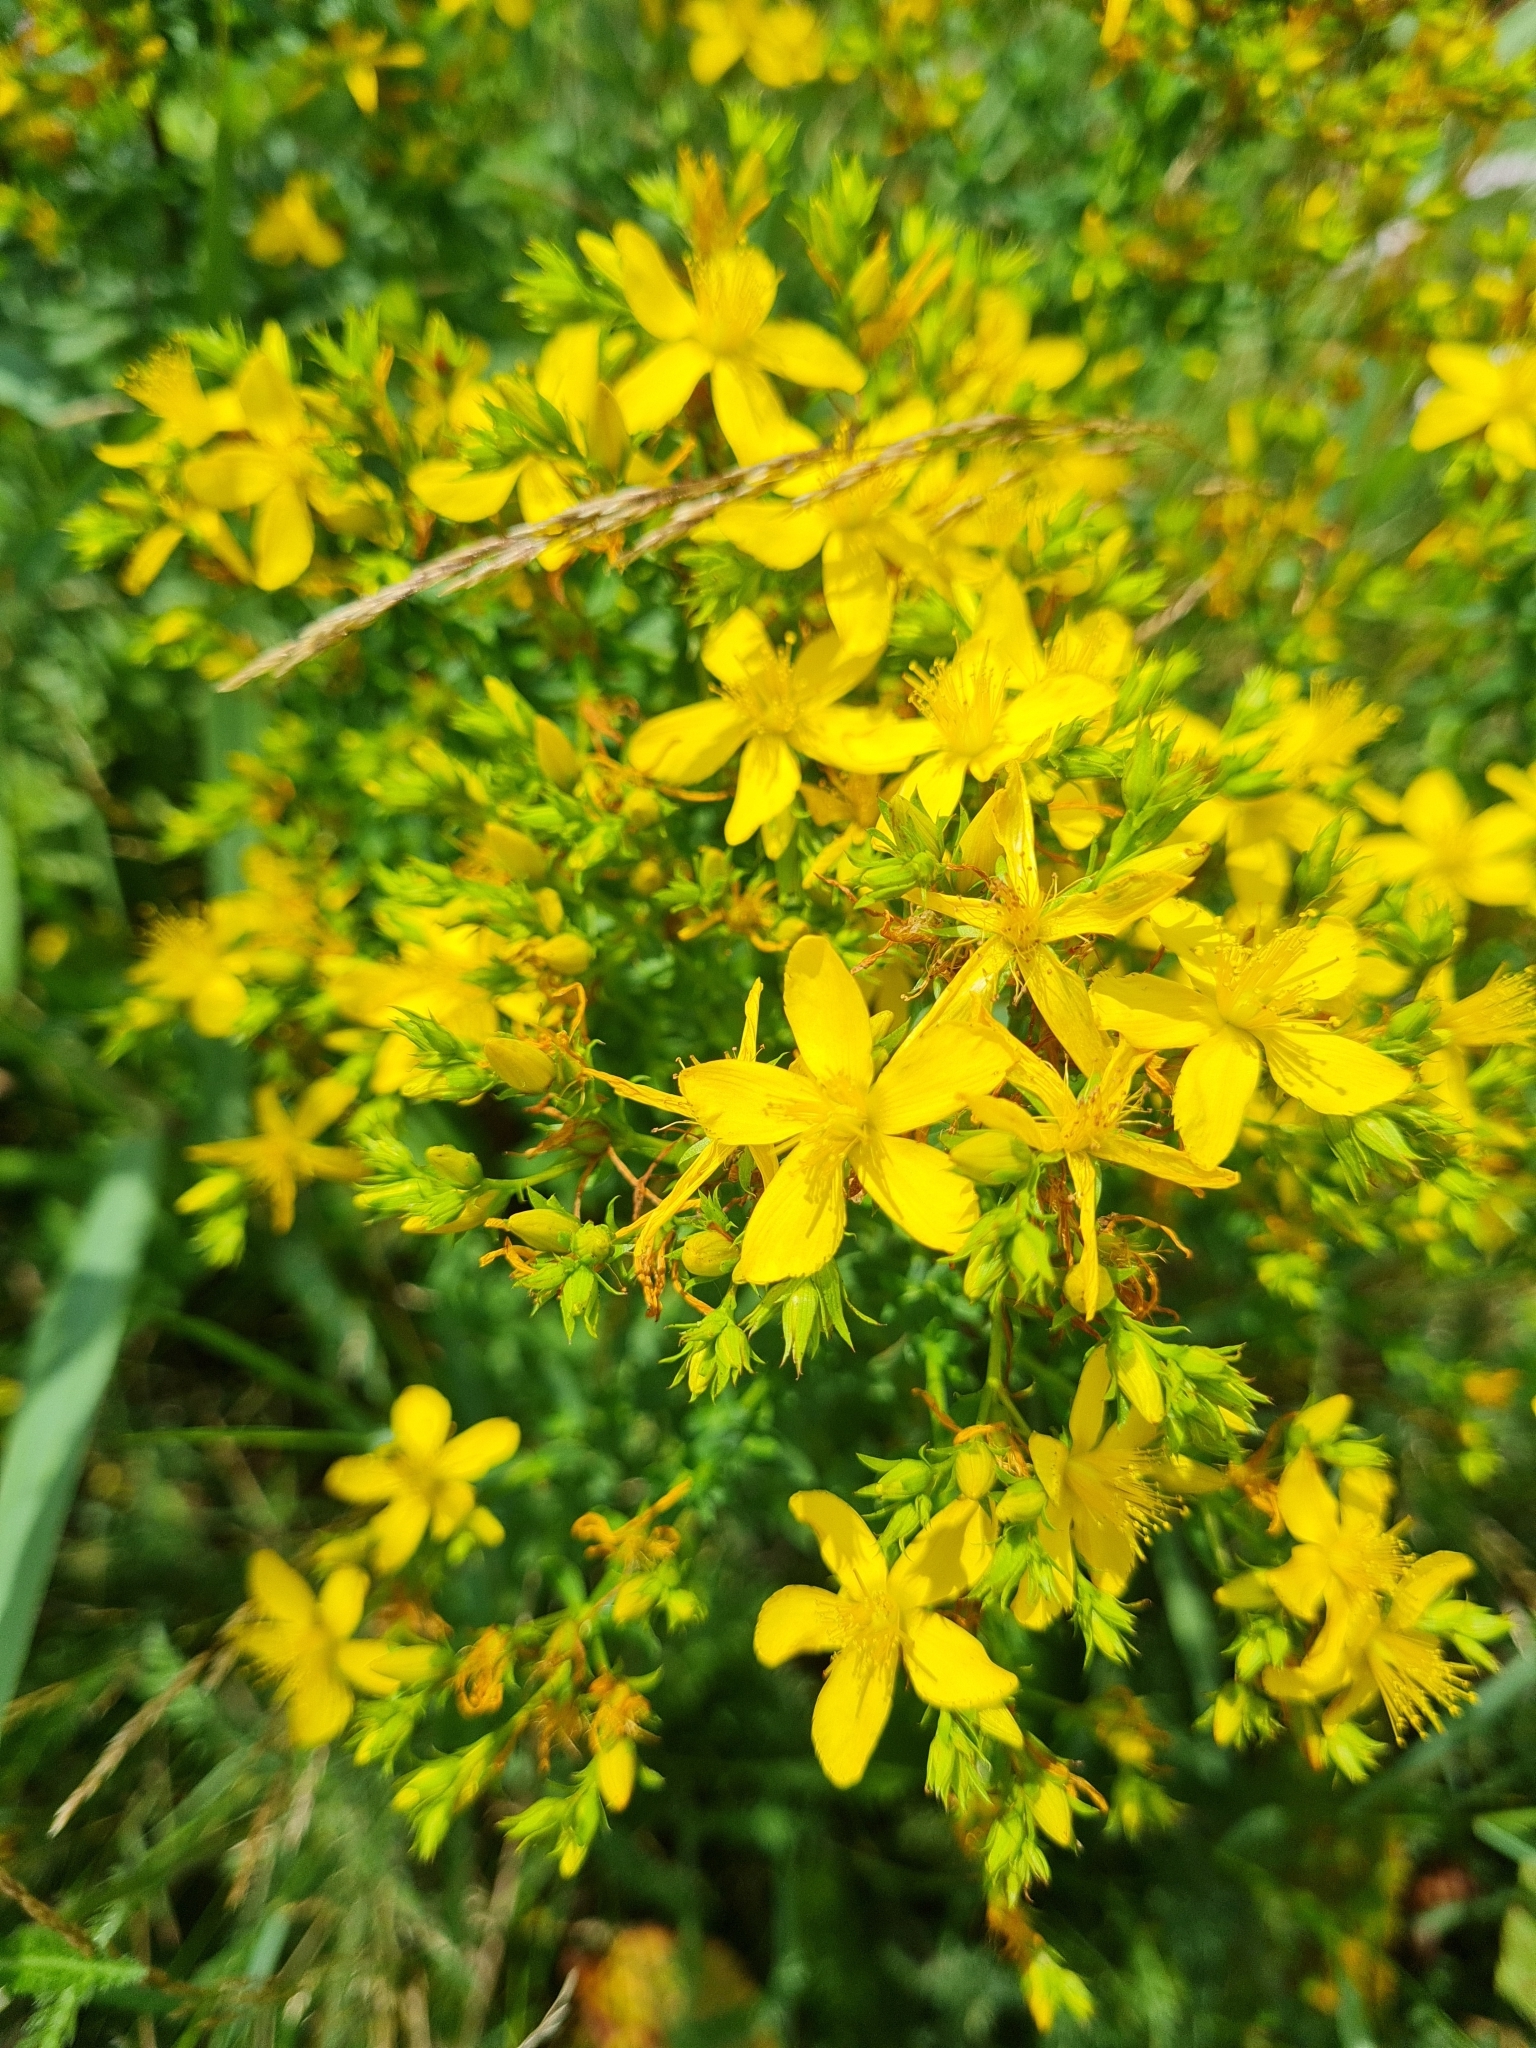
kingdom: Plantae
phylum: Tracheophyta
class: Magnoliopsida
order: Malpighiales
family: Hypericaceae
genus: Hypericum
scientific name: Hypericum perforatum
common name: Common st. johnswort
